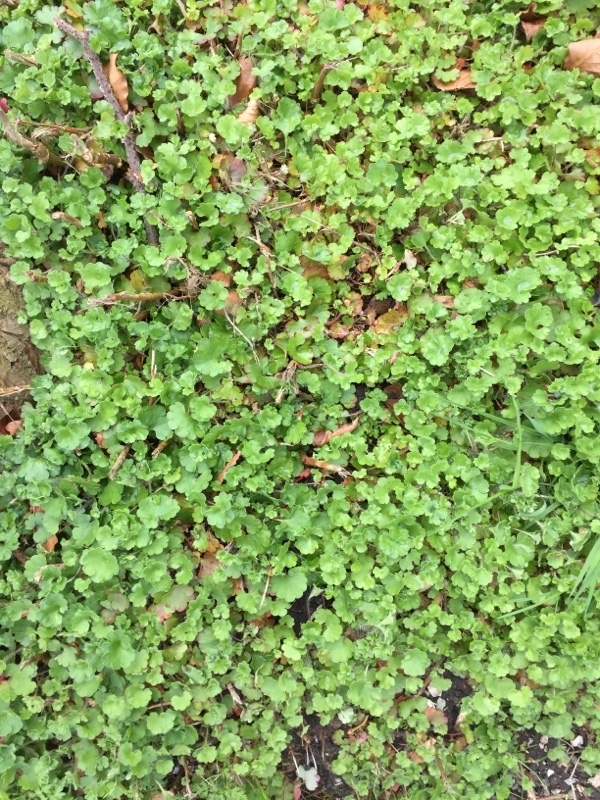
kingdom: Plantae
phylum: Tracheophyta
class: Magnoliopsida
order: Saxifragales
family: Saxifragaceae
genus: Saxifraga
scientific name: Saxifraga granulata
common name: Meadow saxifrage
